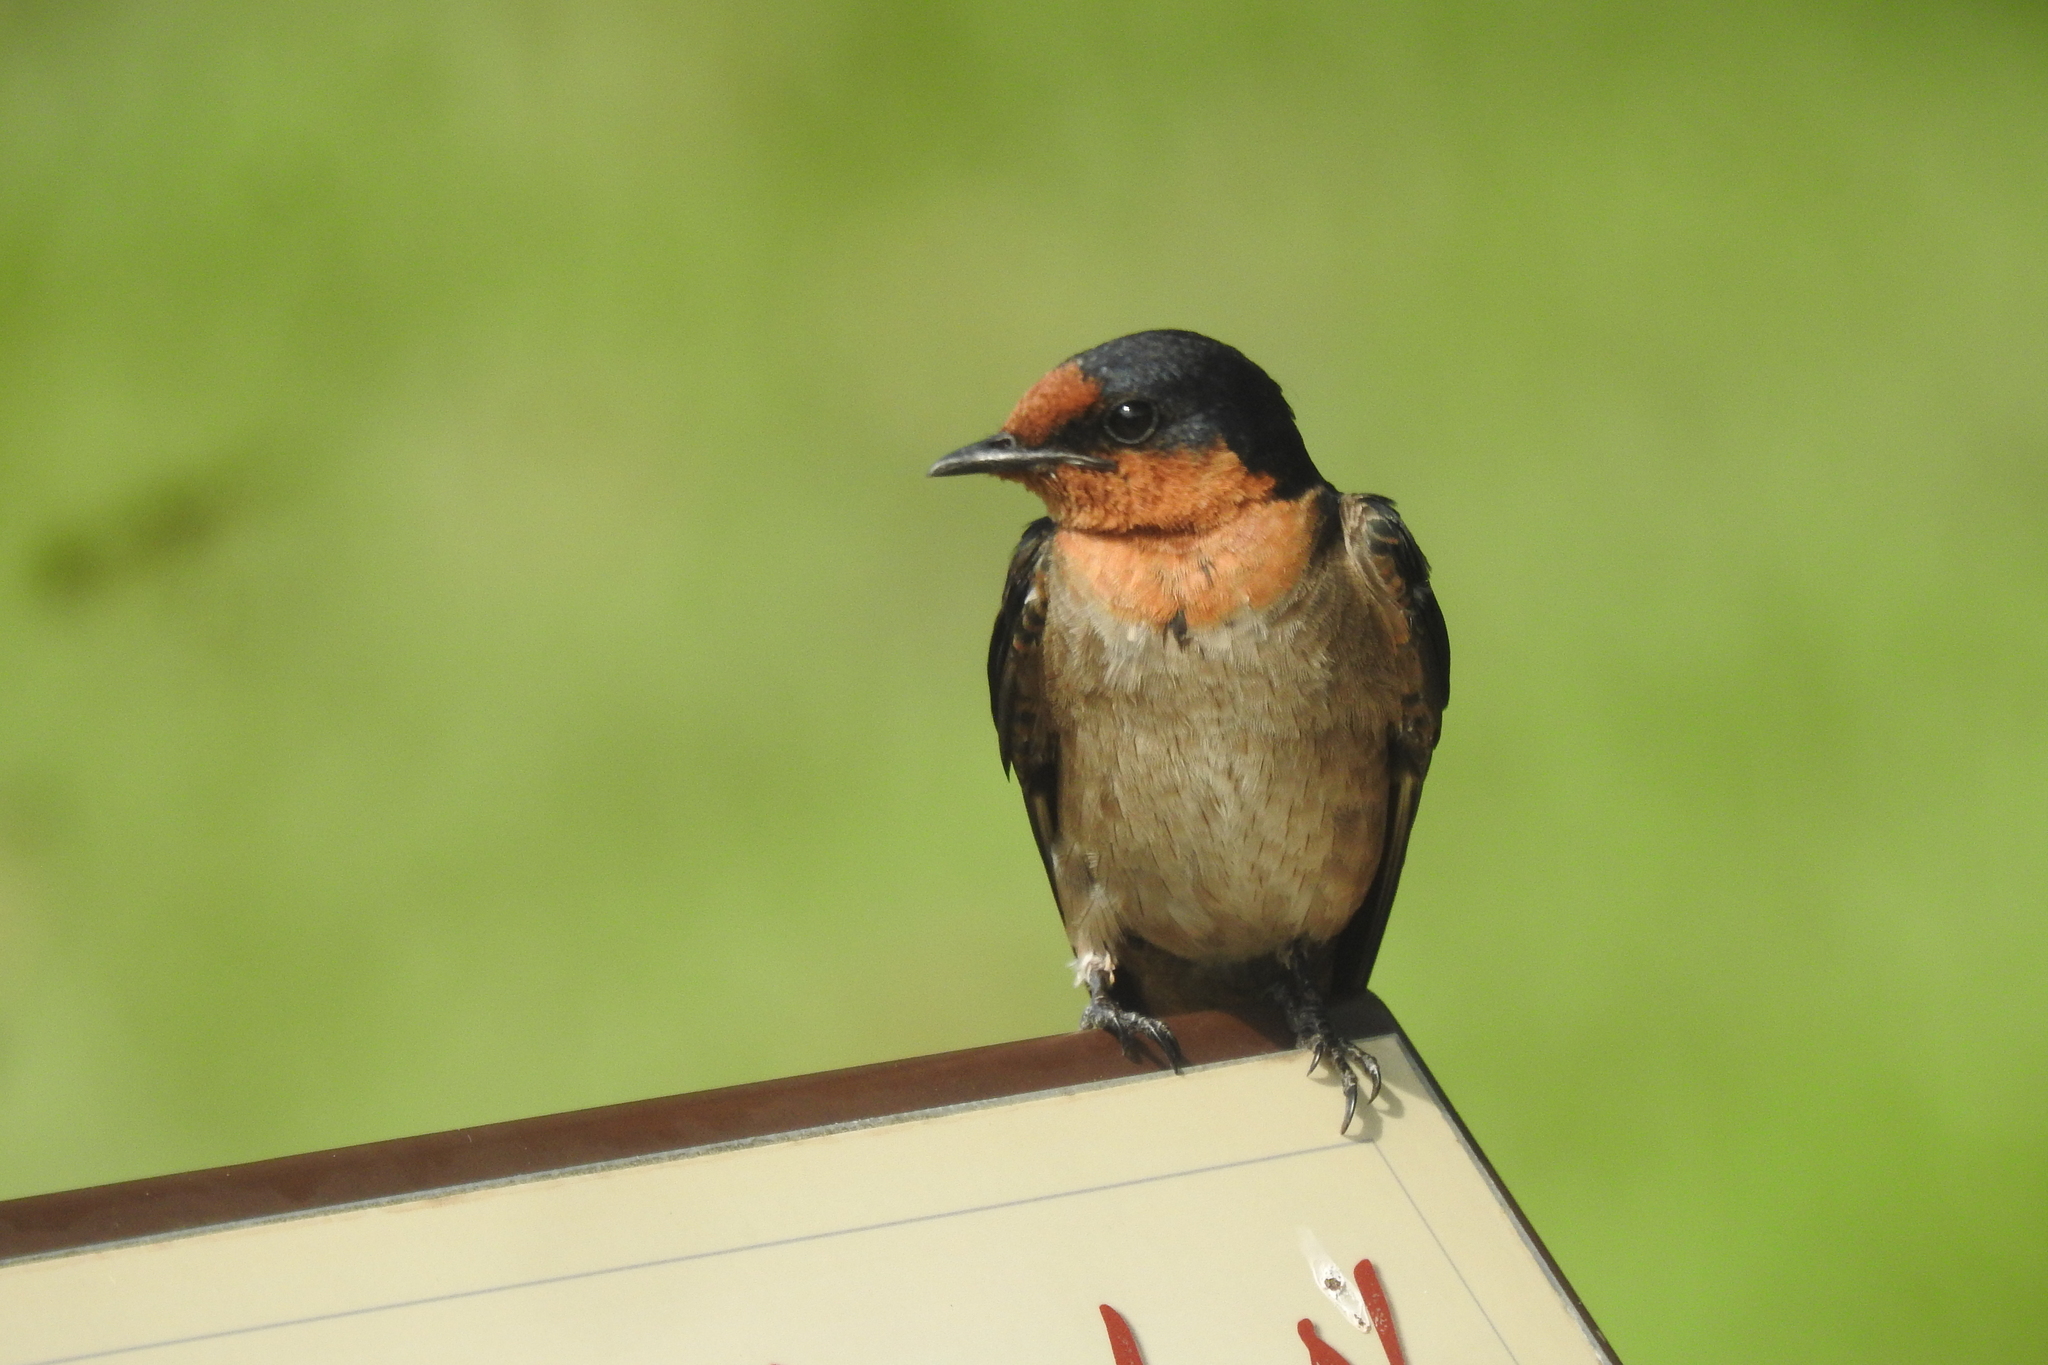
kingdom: Animalia
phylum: Chordata
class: Aves
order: Passeriformes
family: Hirundinidae
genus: Hirundo
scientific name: Hirundo tahitica
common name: Pacific swallow
